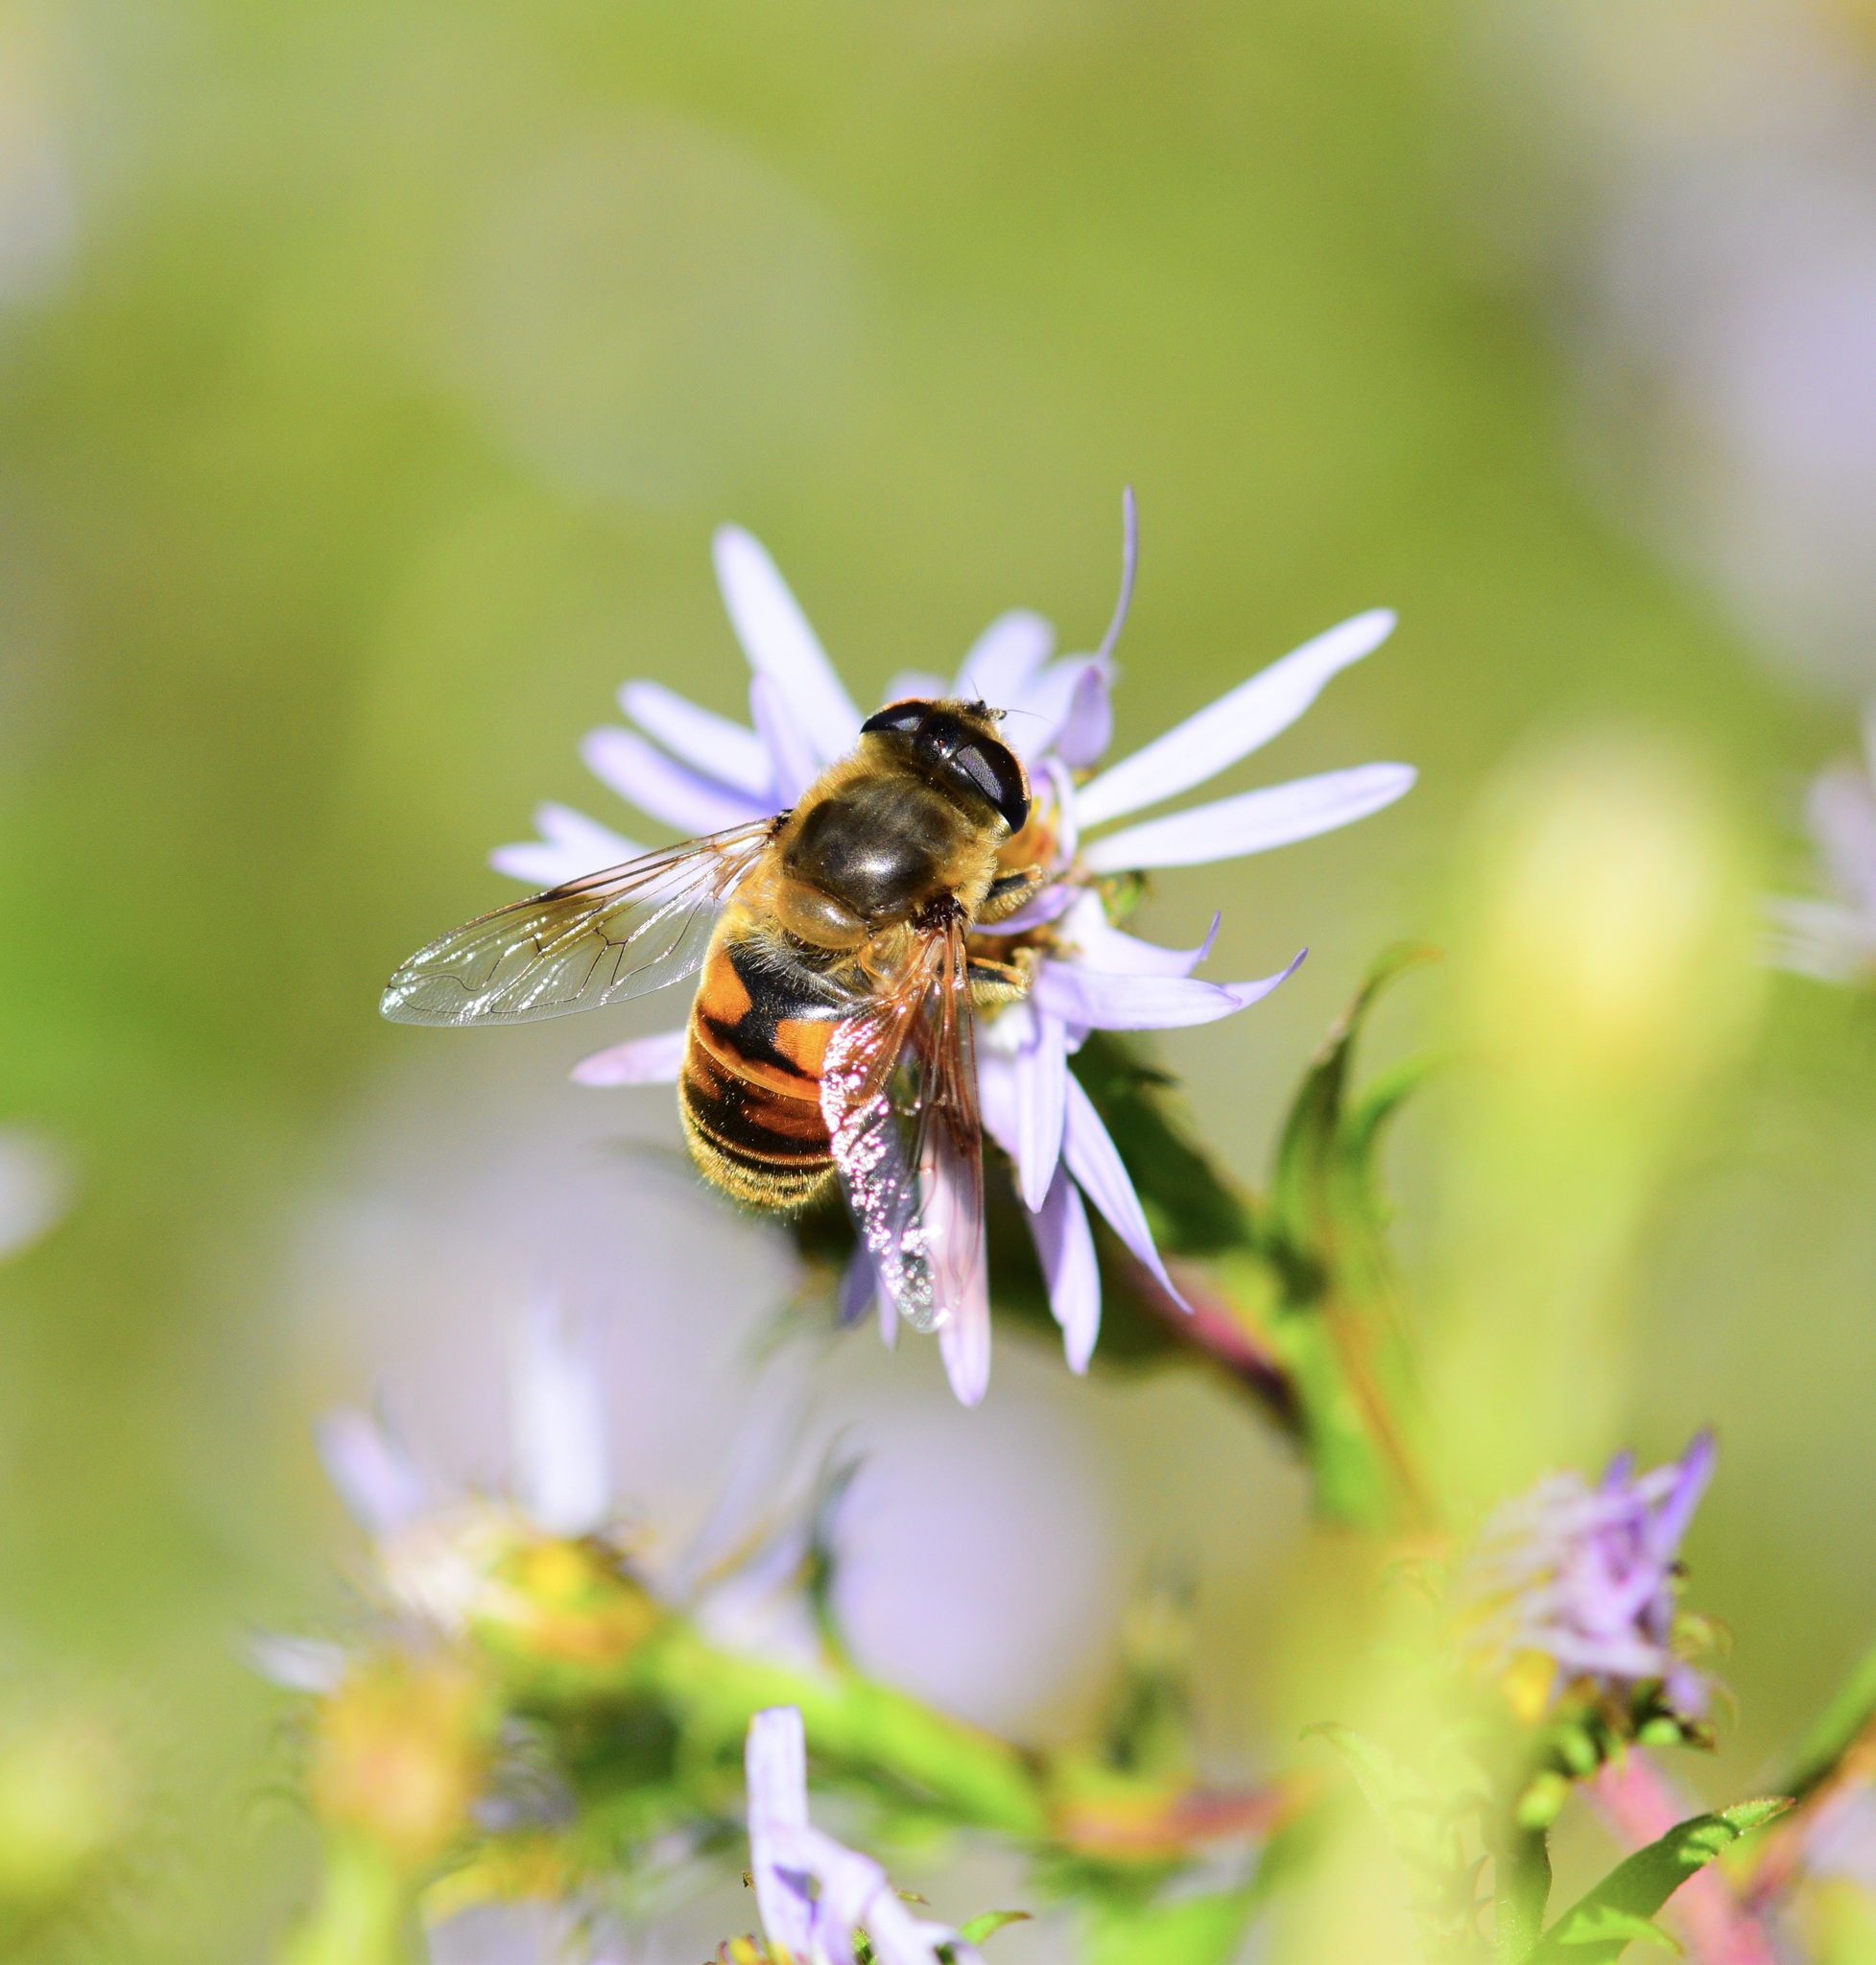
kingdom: Animalia
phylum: Arthropoda
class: Insecta
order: Diptera
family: Syrphidae
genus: Eristalis
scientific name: Eristalis tenax
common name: Drone fly
